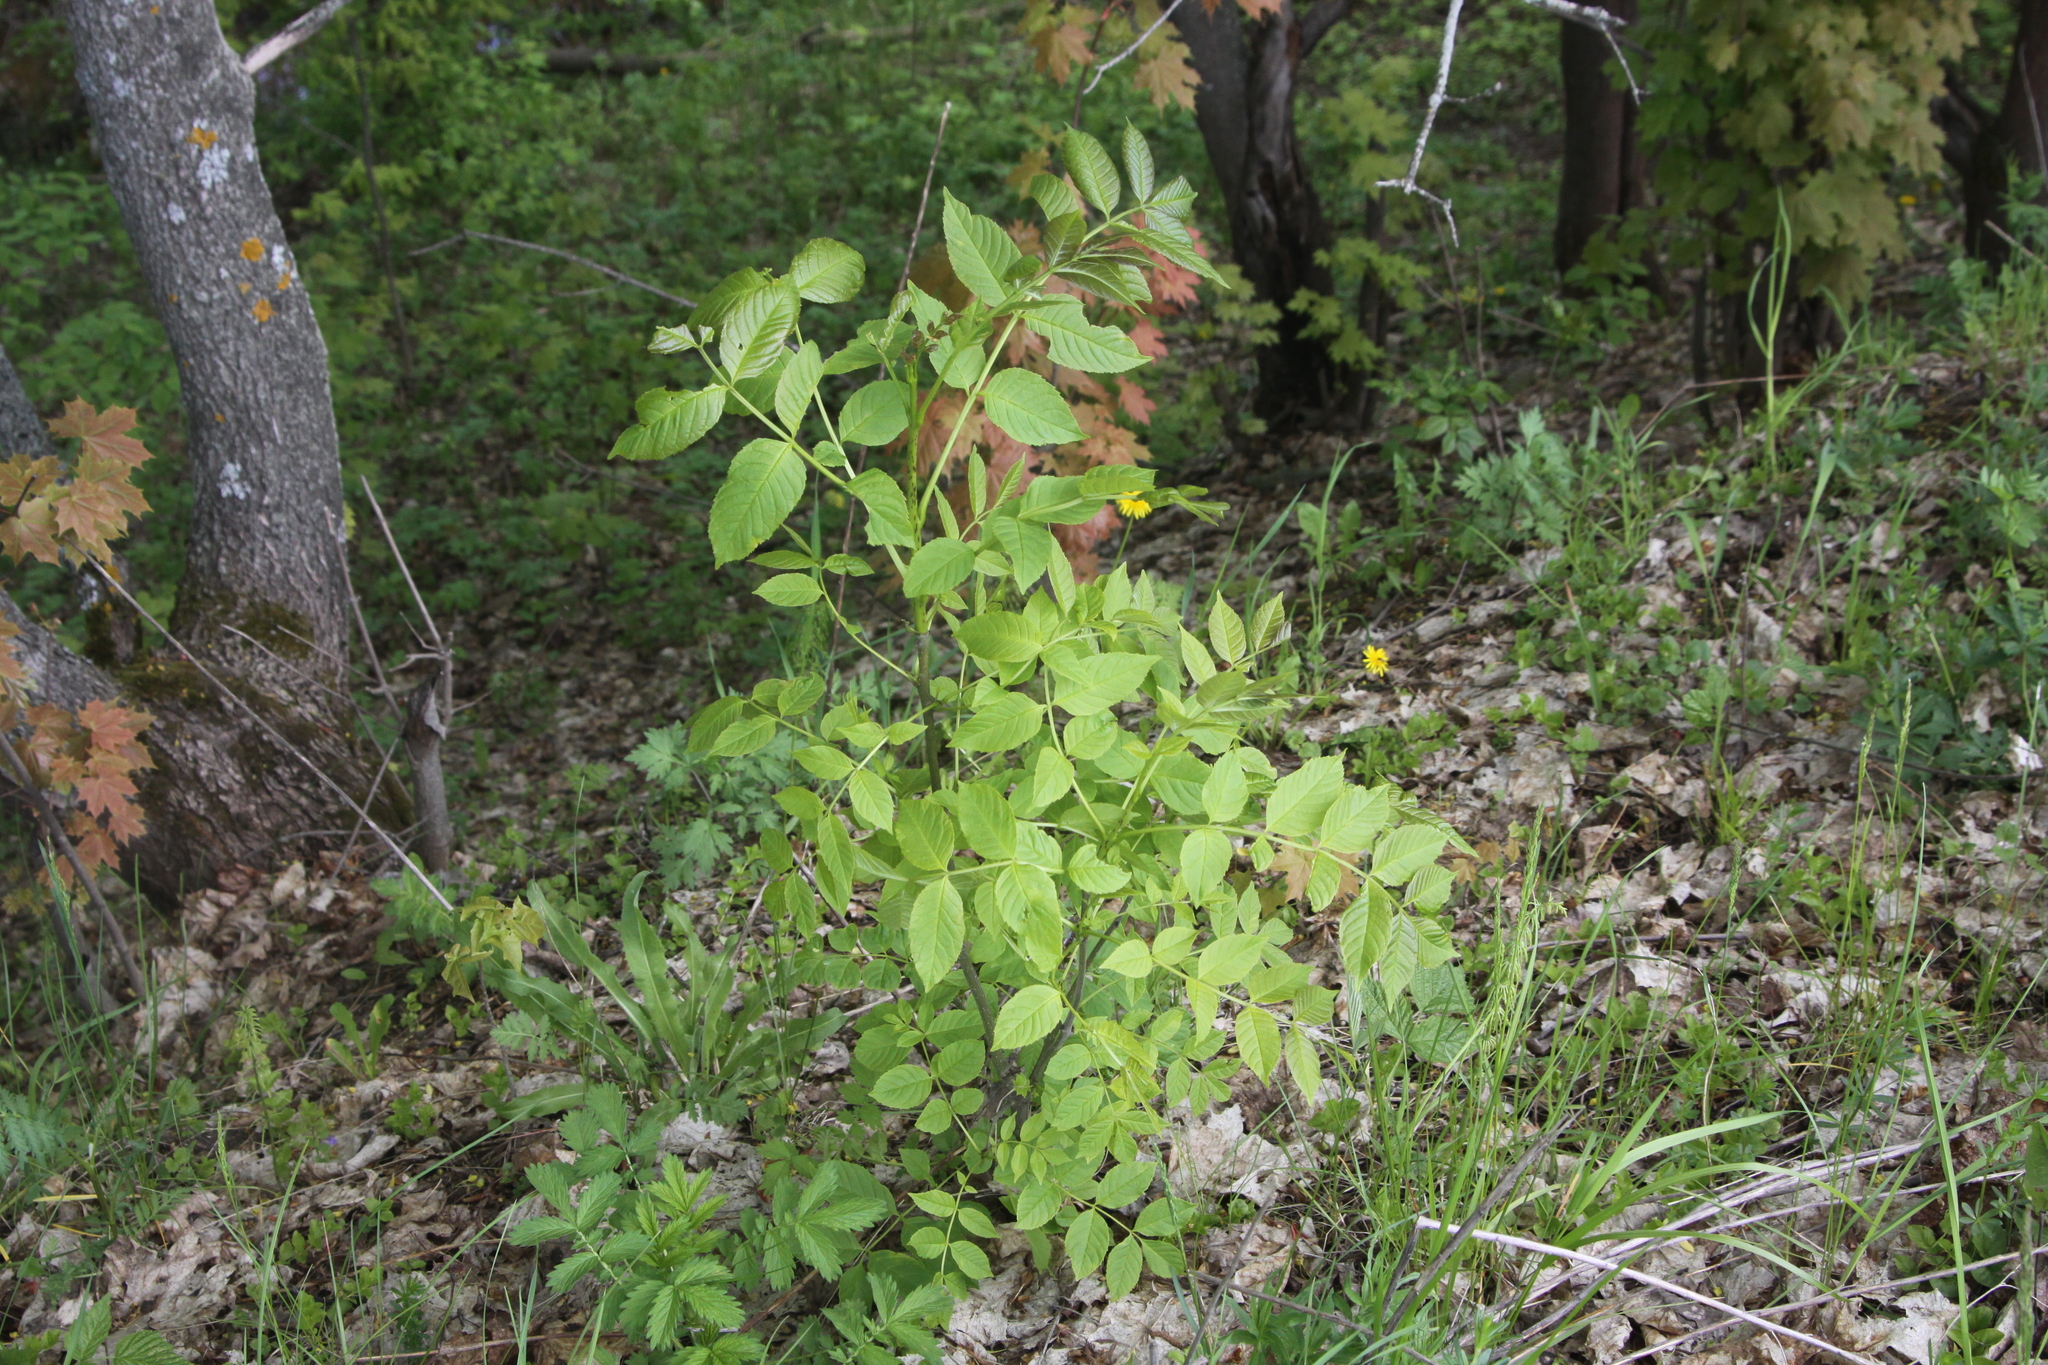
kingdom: Plantae
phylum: Tracheophyta
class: Magnoliopsida
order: Lamiales
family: Oleaceae
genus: Fraxinus
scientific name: Fraxinus excelsior
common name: European ash
